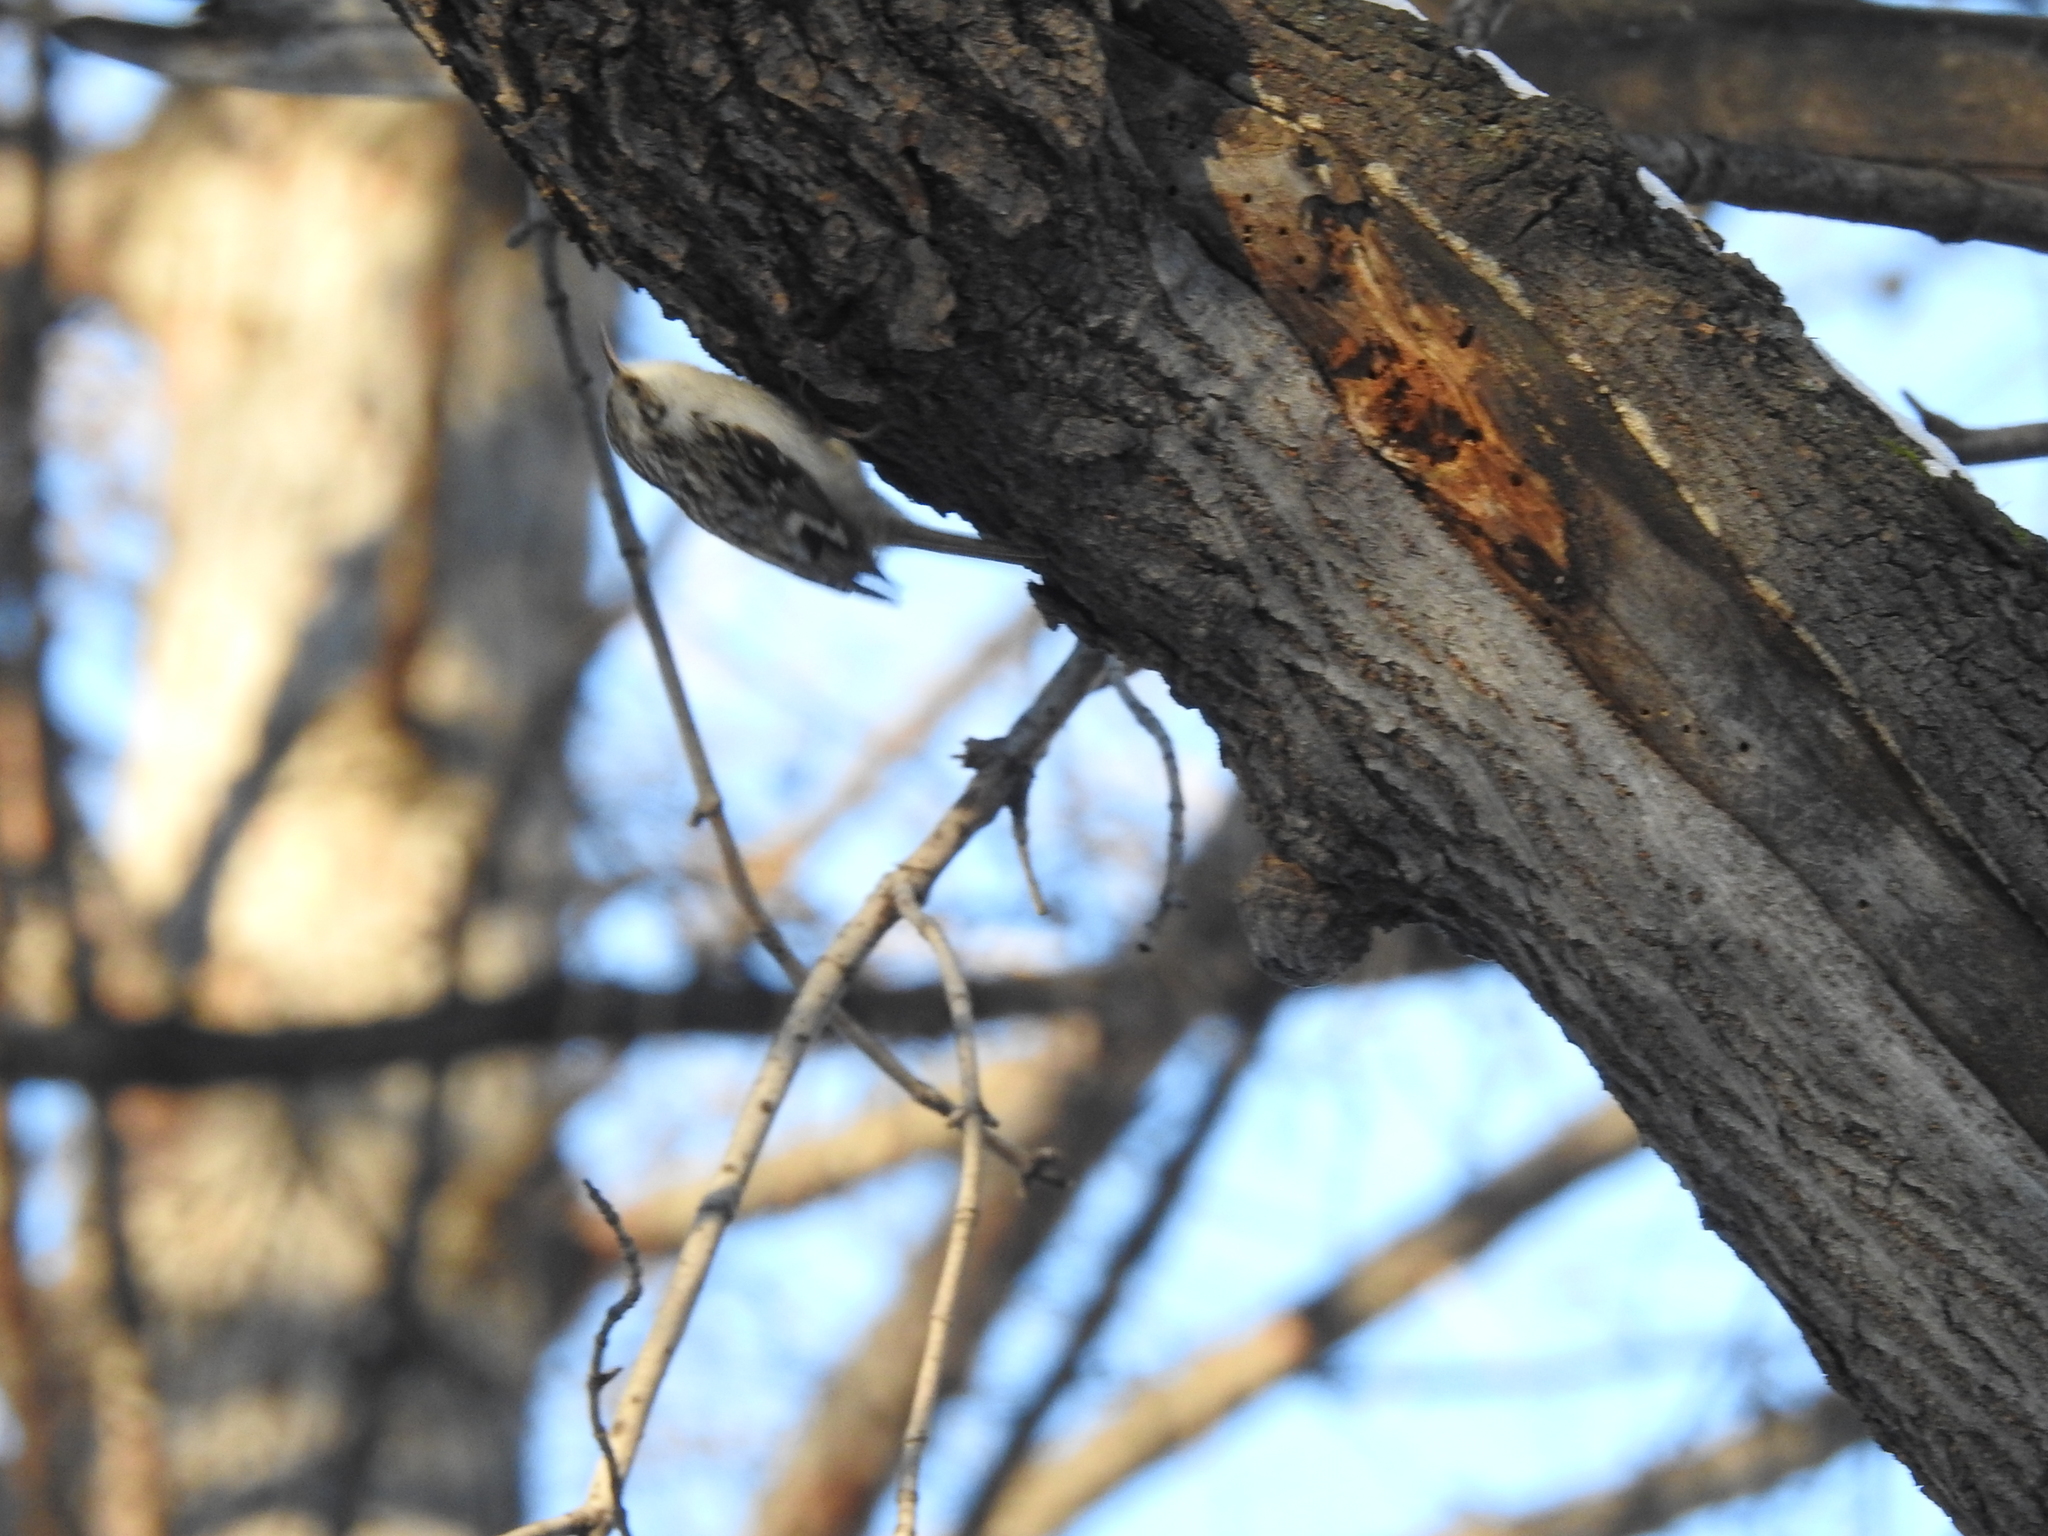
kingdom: Animalia
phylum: Chordata
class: Aves
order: Passeriformes
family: Certhiidae
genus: Certhia
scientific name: Certhia familiaris
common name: Eurasian treecreeper
